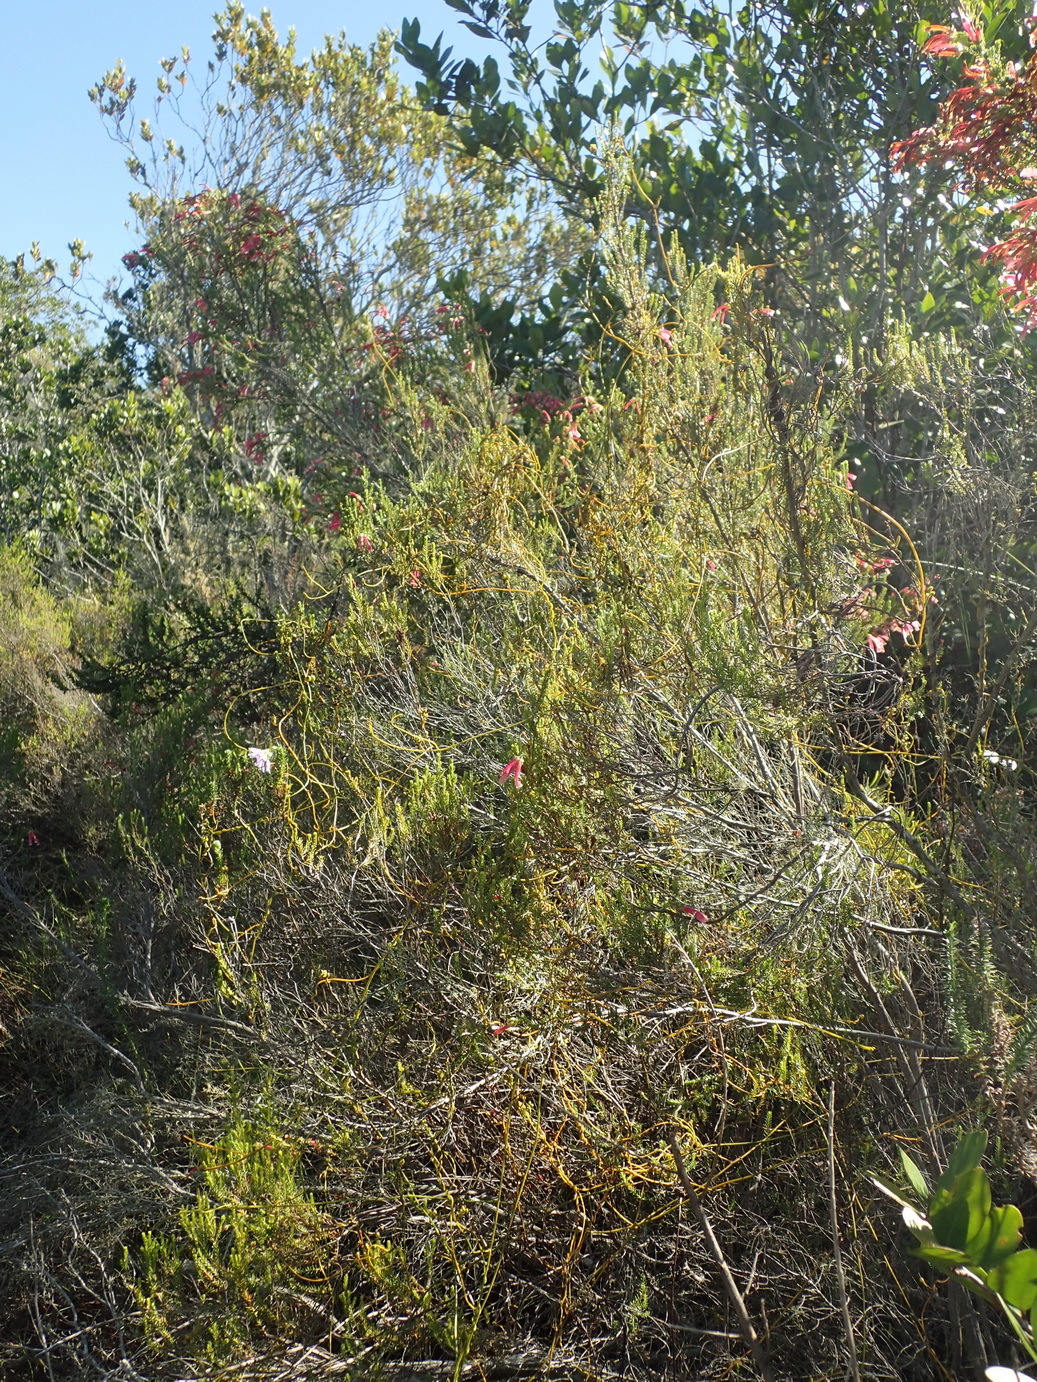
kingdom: Plantae
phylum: Tracheophyta
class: Magnoliopsida
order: Ericales
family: Ericaceae
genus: Erica
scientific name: Erica discolor
